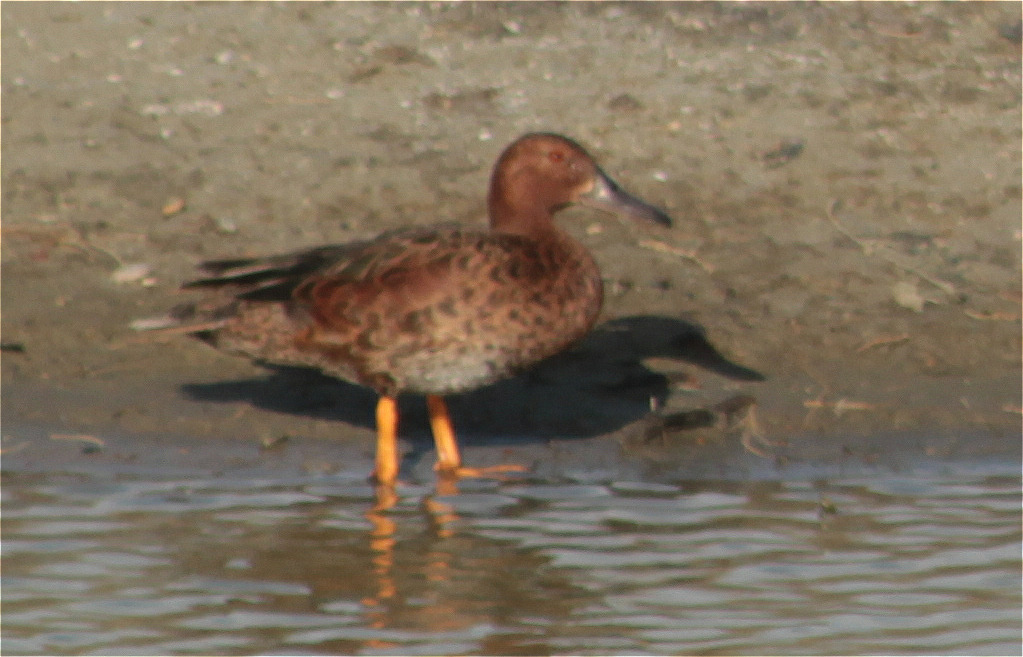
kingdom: Animalia
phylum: Chordata
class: Aves
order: Anseriformes
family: Anatidae
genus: Spatula
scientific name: Spatula cyanoptera
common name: Cinnamon teal
